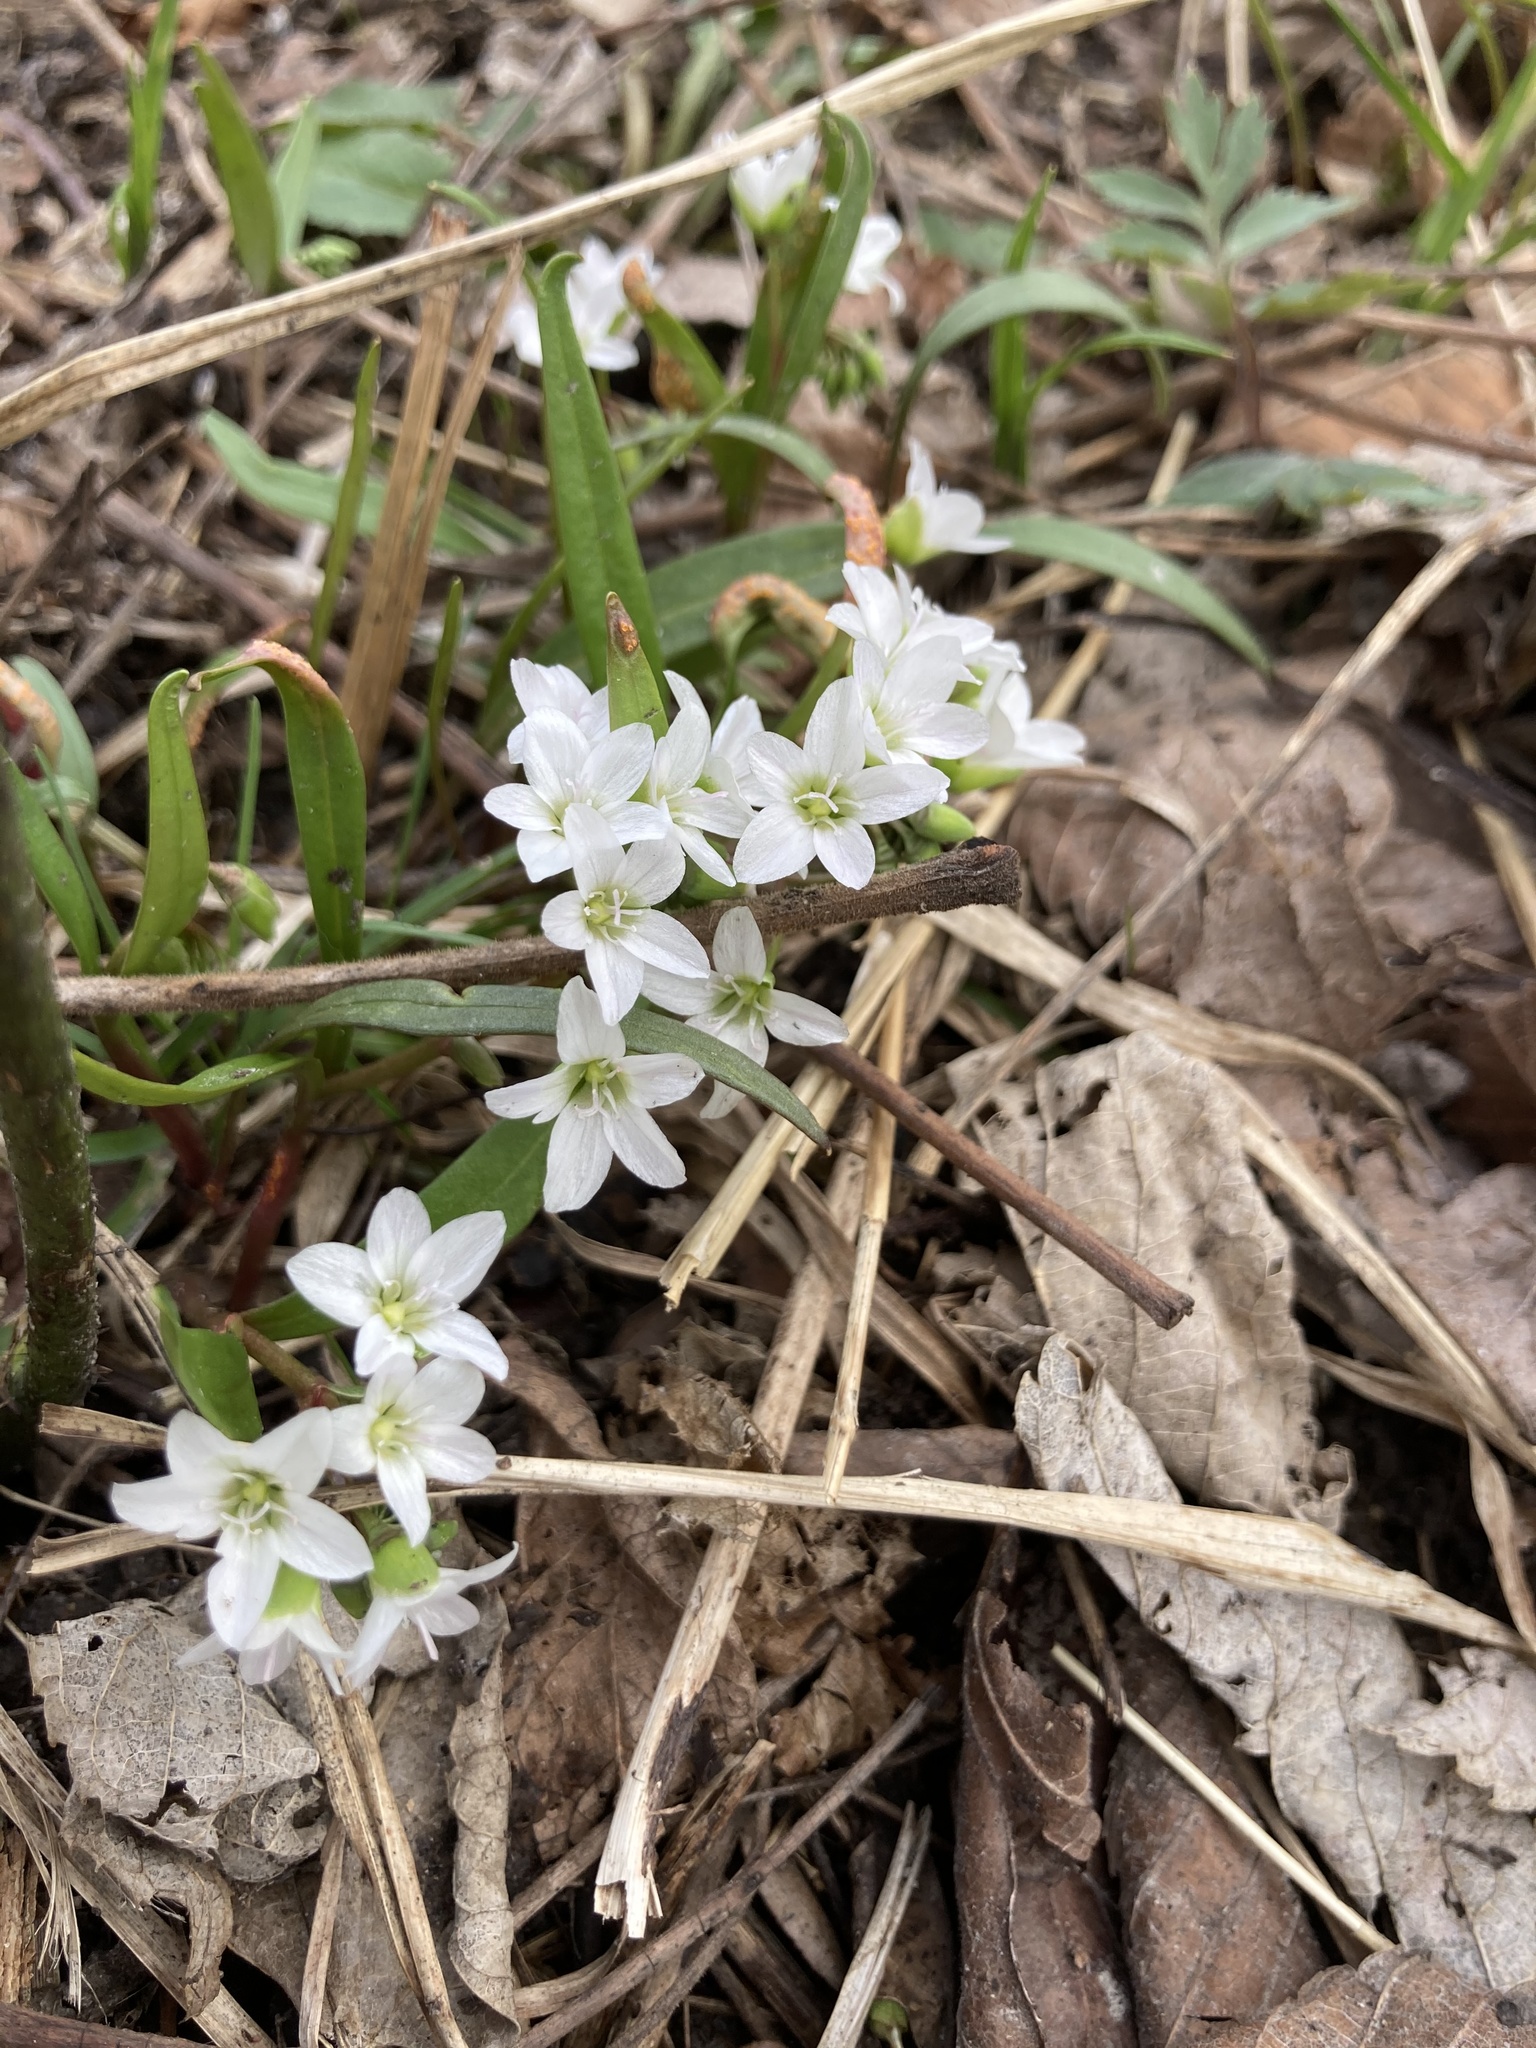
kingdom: Plantae
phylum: Tracheophyta
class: Magnoliopsida
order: Caryophyllales
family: Montiaceae
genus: Claytonia
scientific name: Claytonia virginica
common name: Virginia springbeauty
